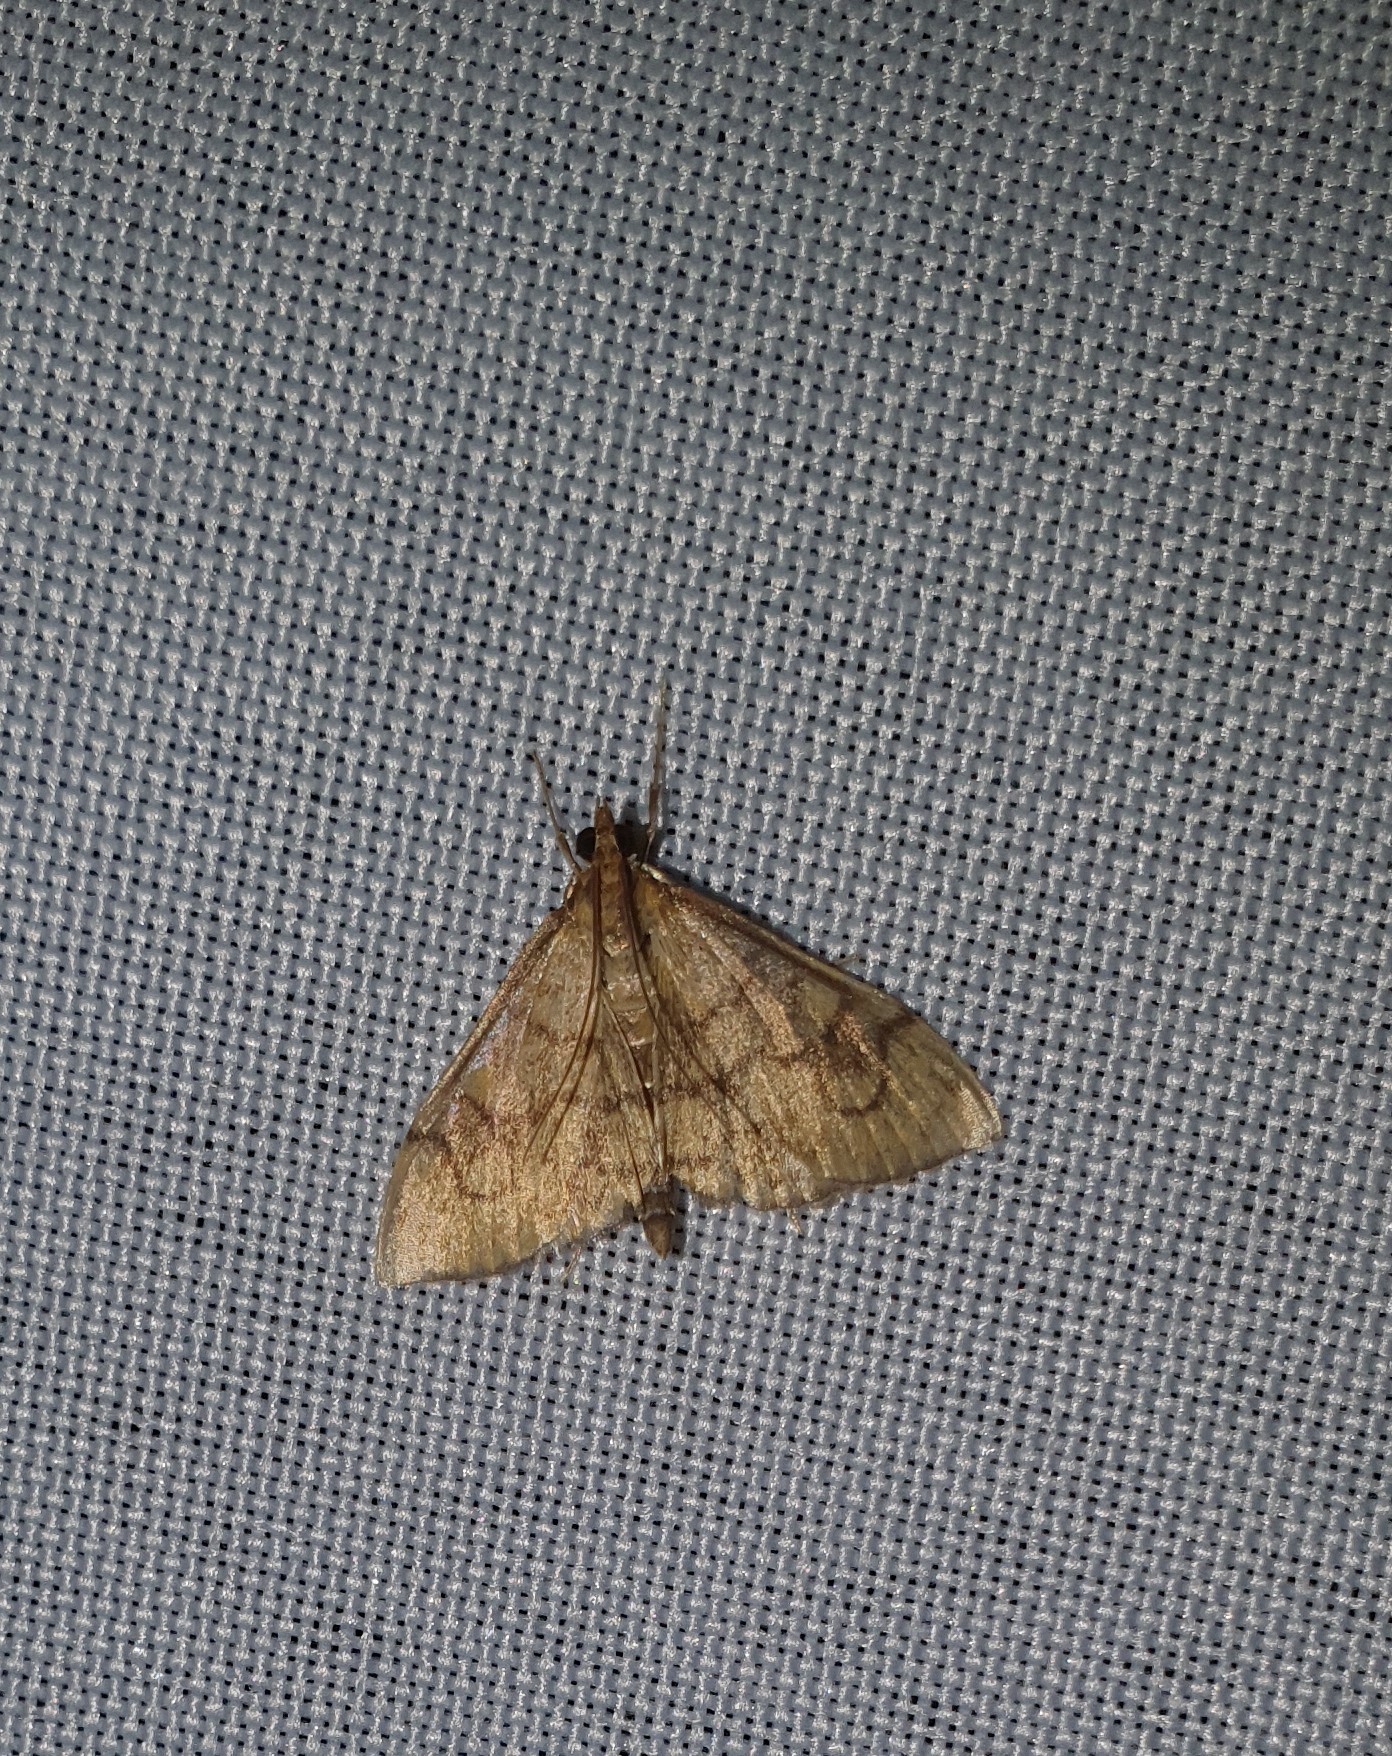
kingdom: Animalia
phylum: Arthropoda
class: Insecta
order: Lepidoptera
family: Crambidae
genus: Anania
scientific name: Anania verbascalis
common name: Golden pearl
